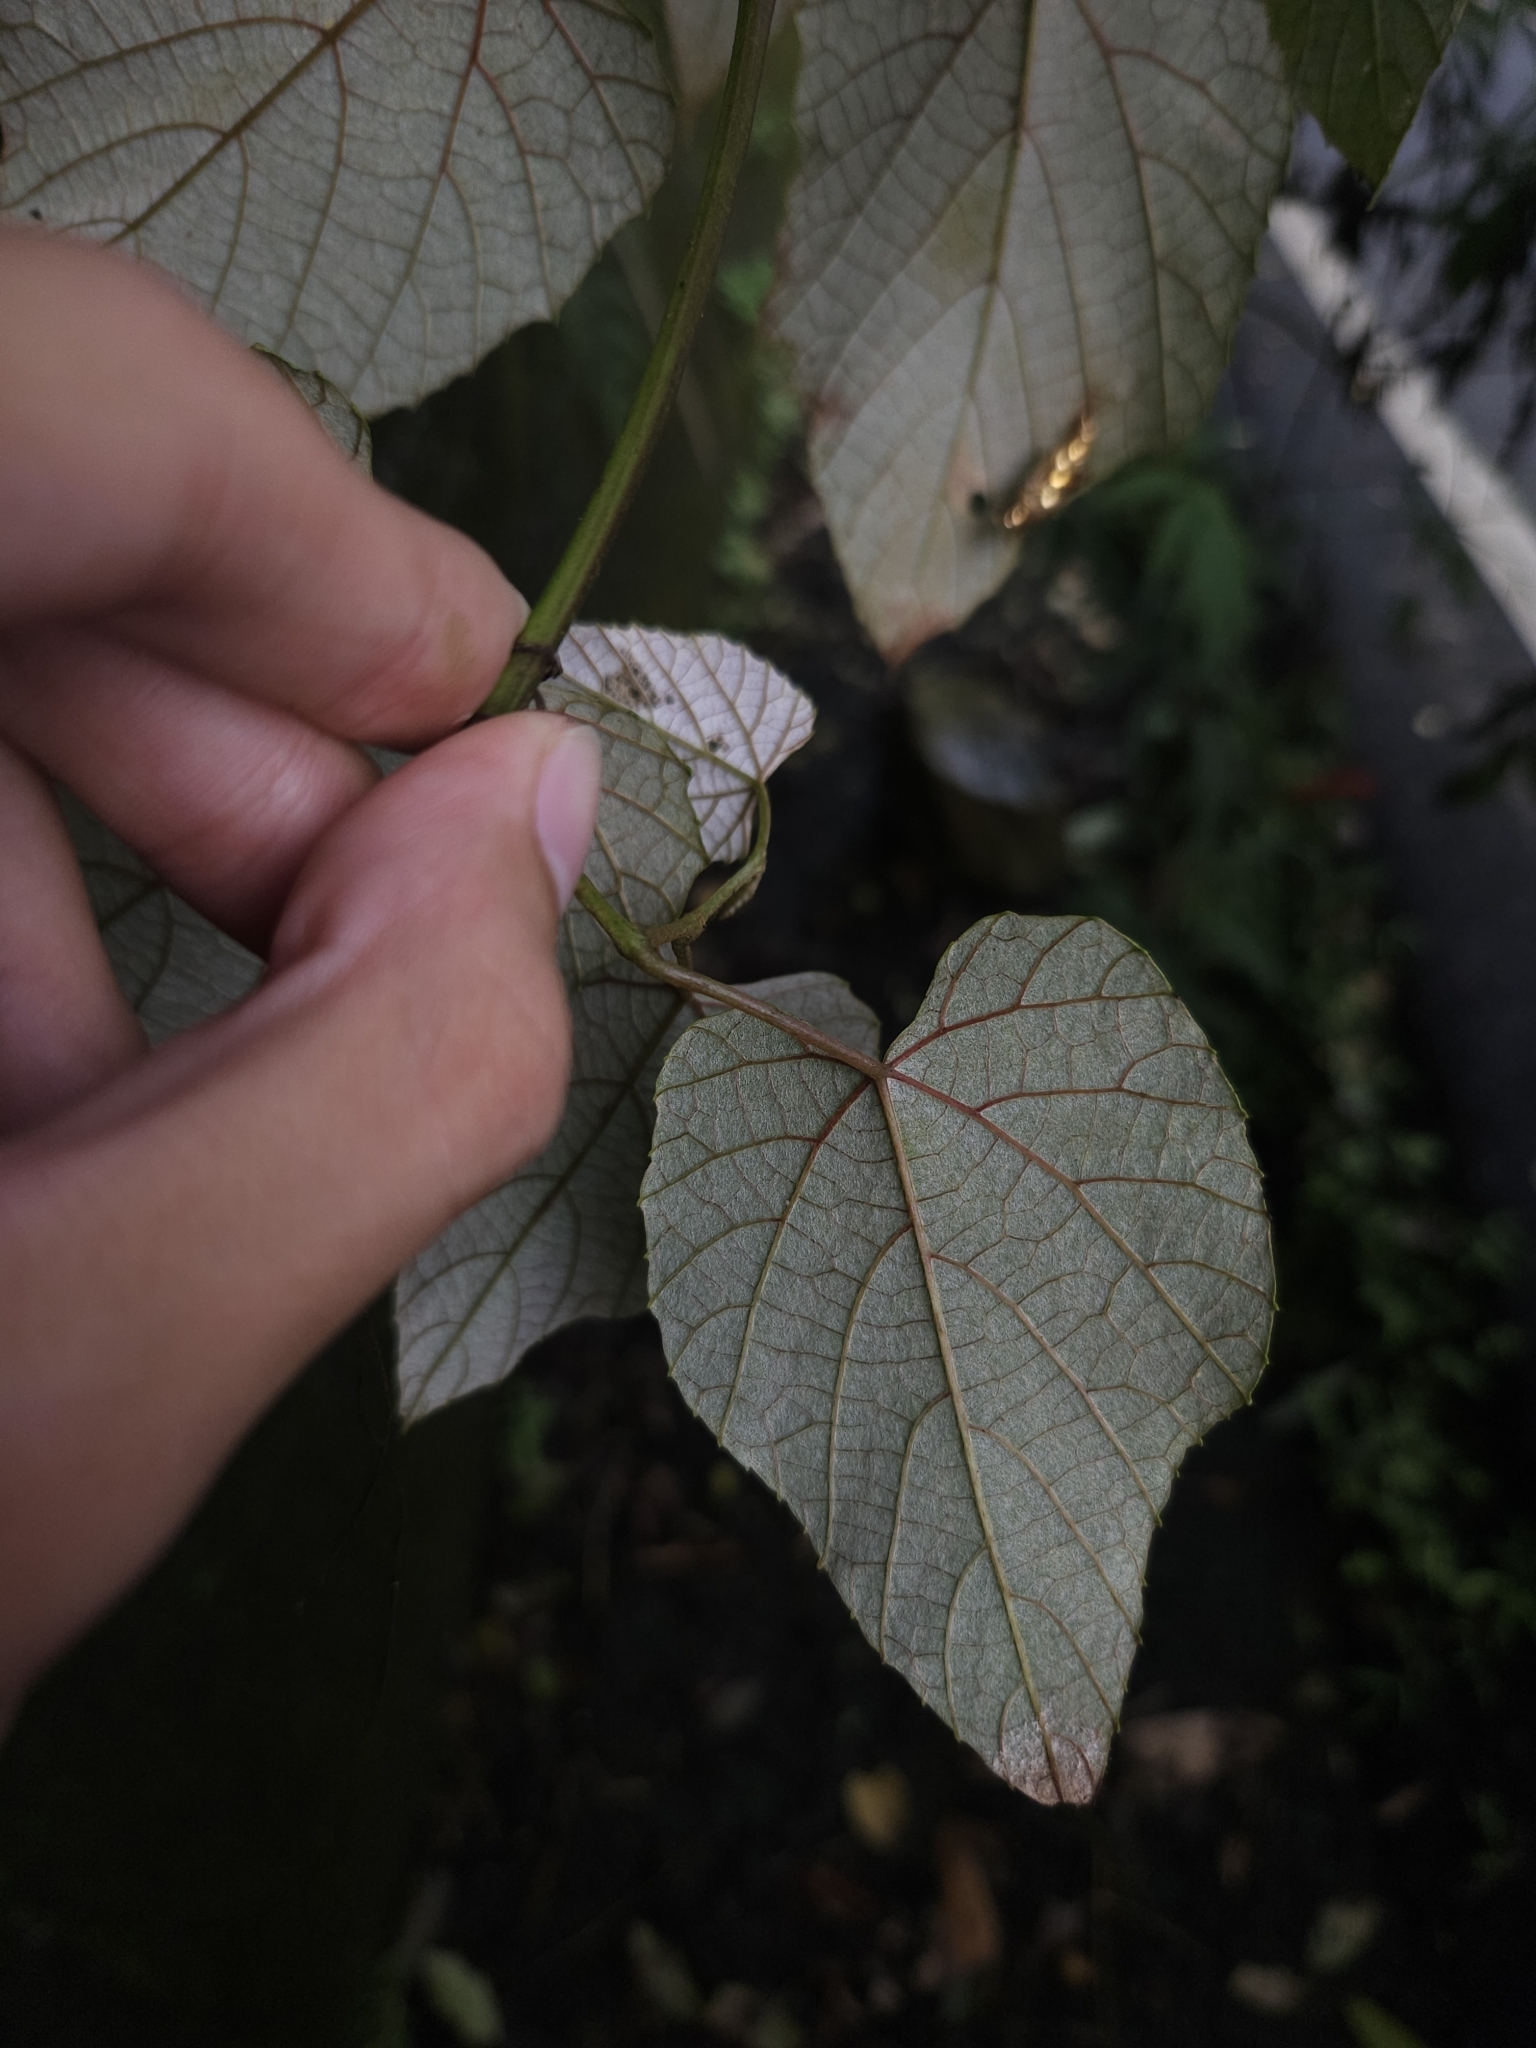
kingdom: Plantae
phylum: Tracheophyta
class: Magnoliopsida
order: Vitales
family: Vitaceae
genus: Vitis
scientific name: Vitis heyneana
